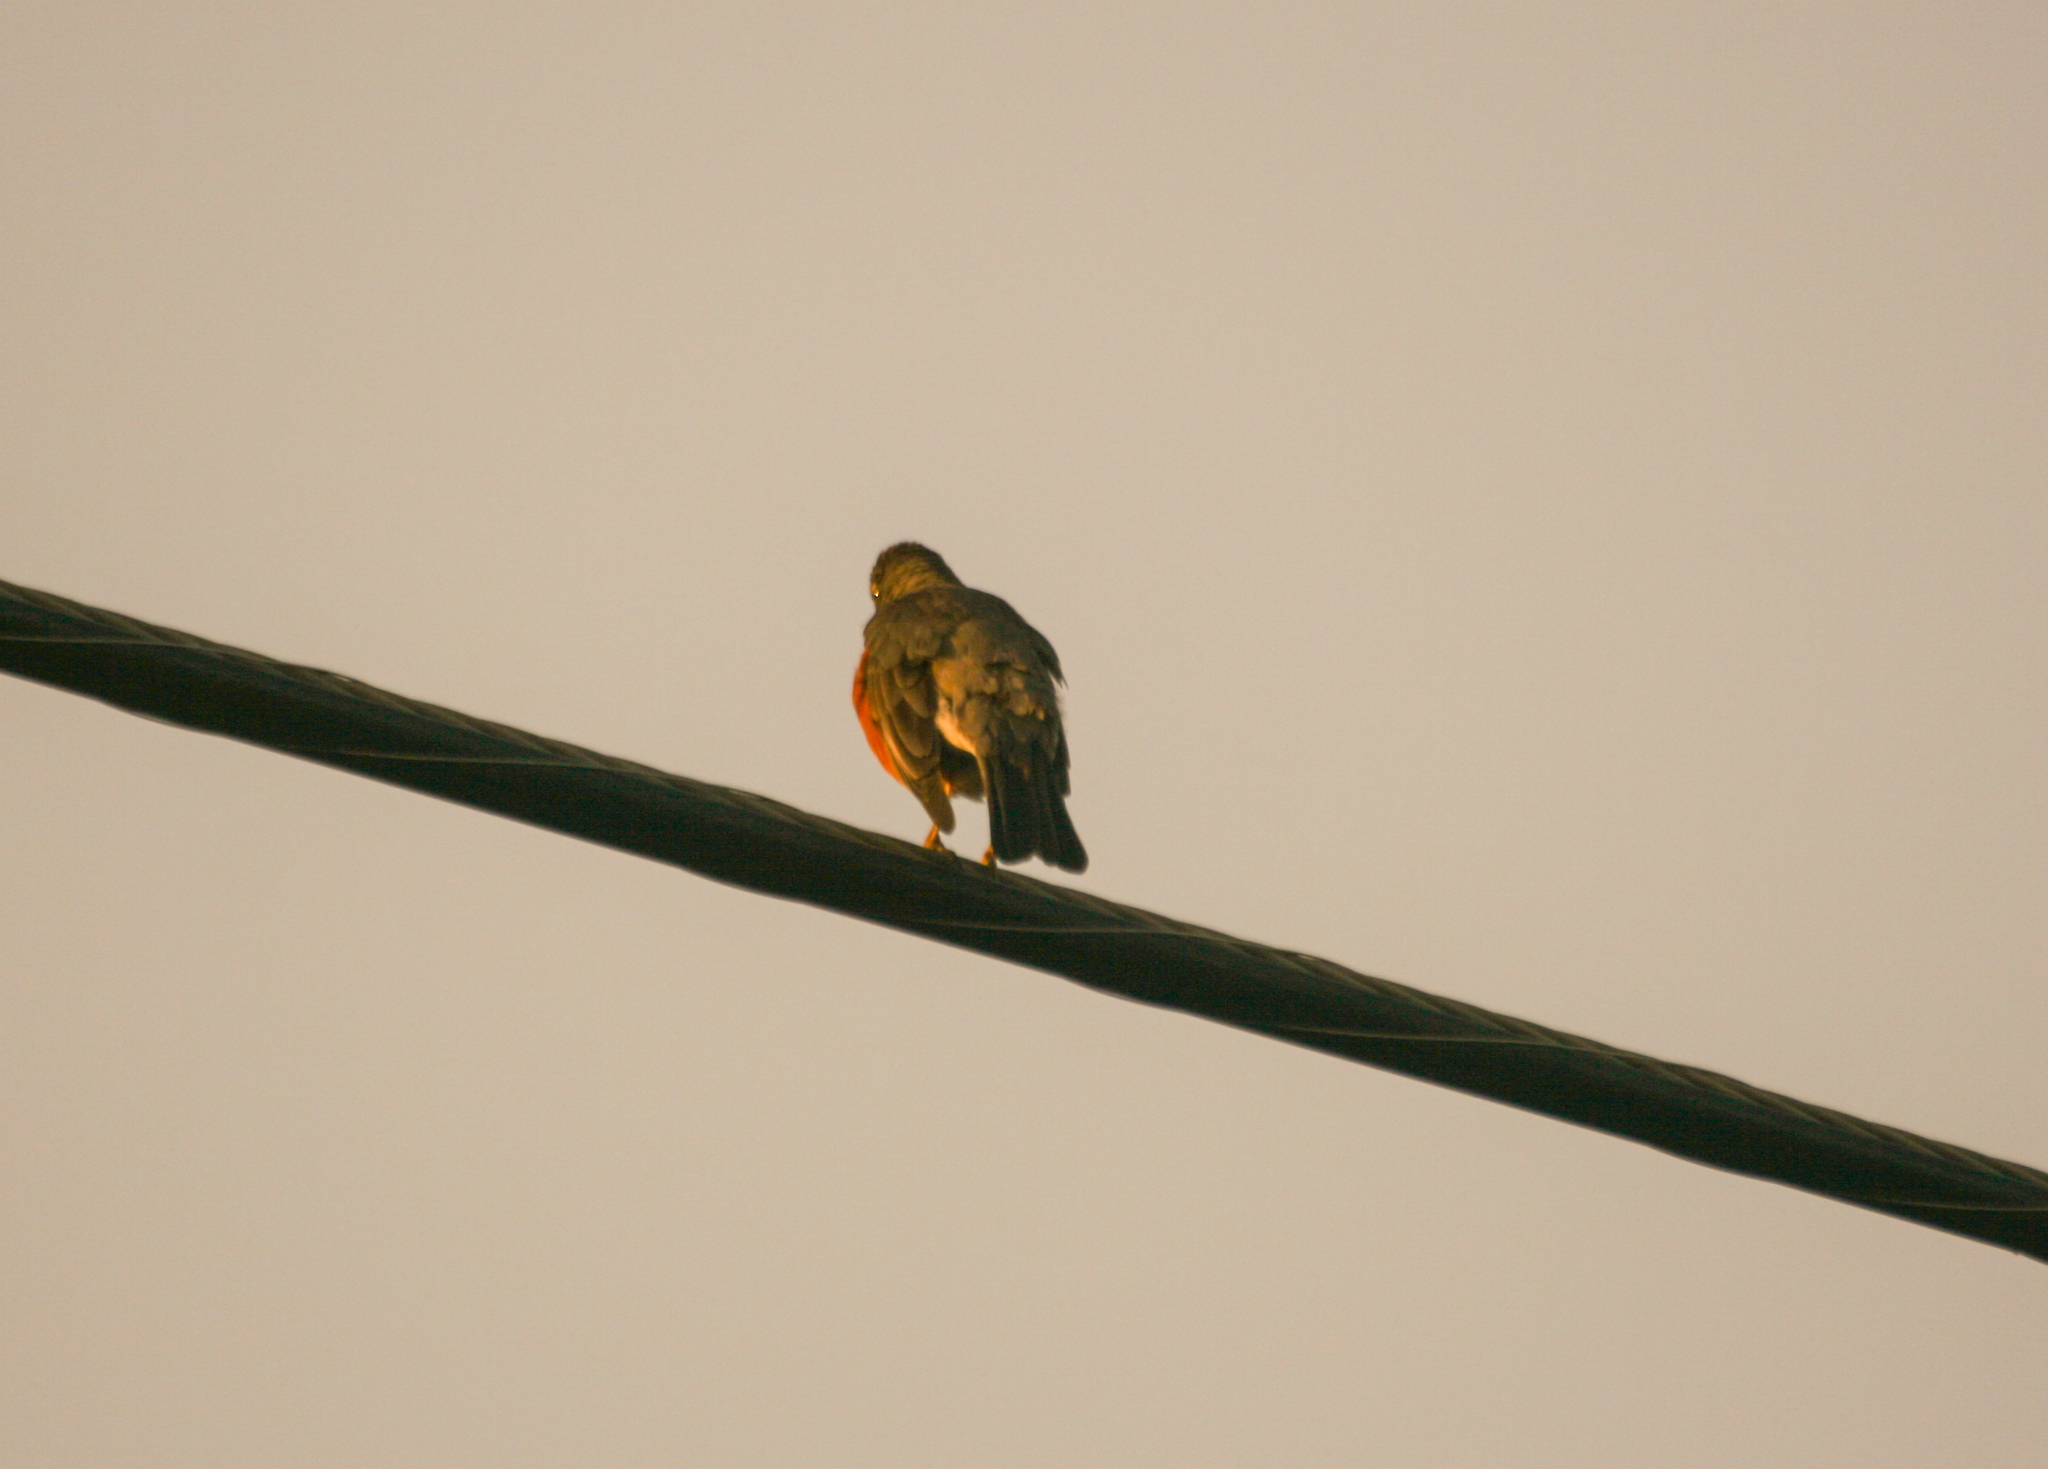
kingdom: Animalia
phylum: Chordata
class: Aves
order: Passeriformes
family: Turdidae
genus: Turdus
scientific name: Turdus migratorius
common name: American robin
